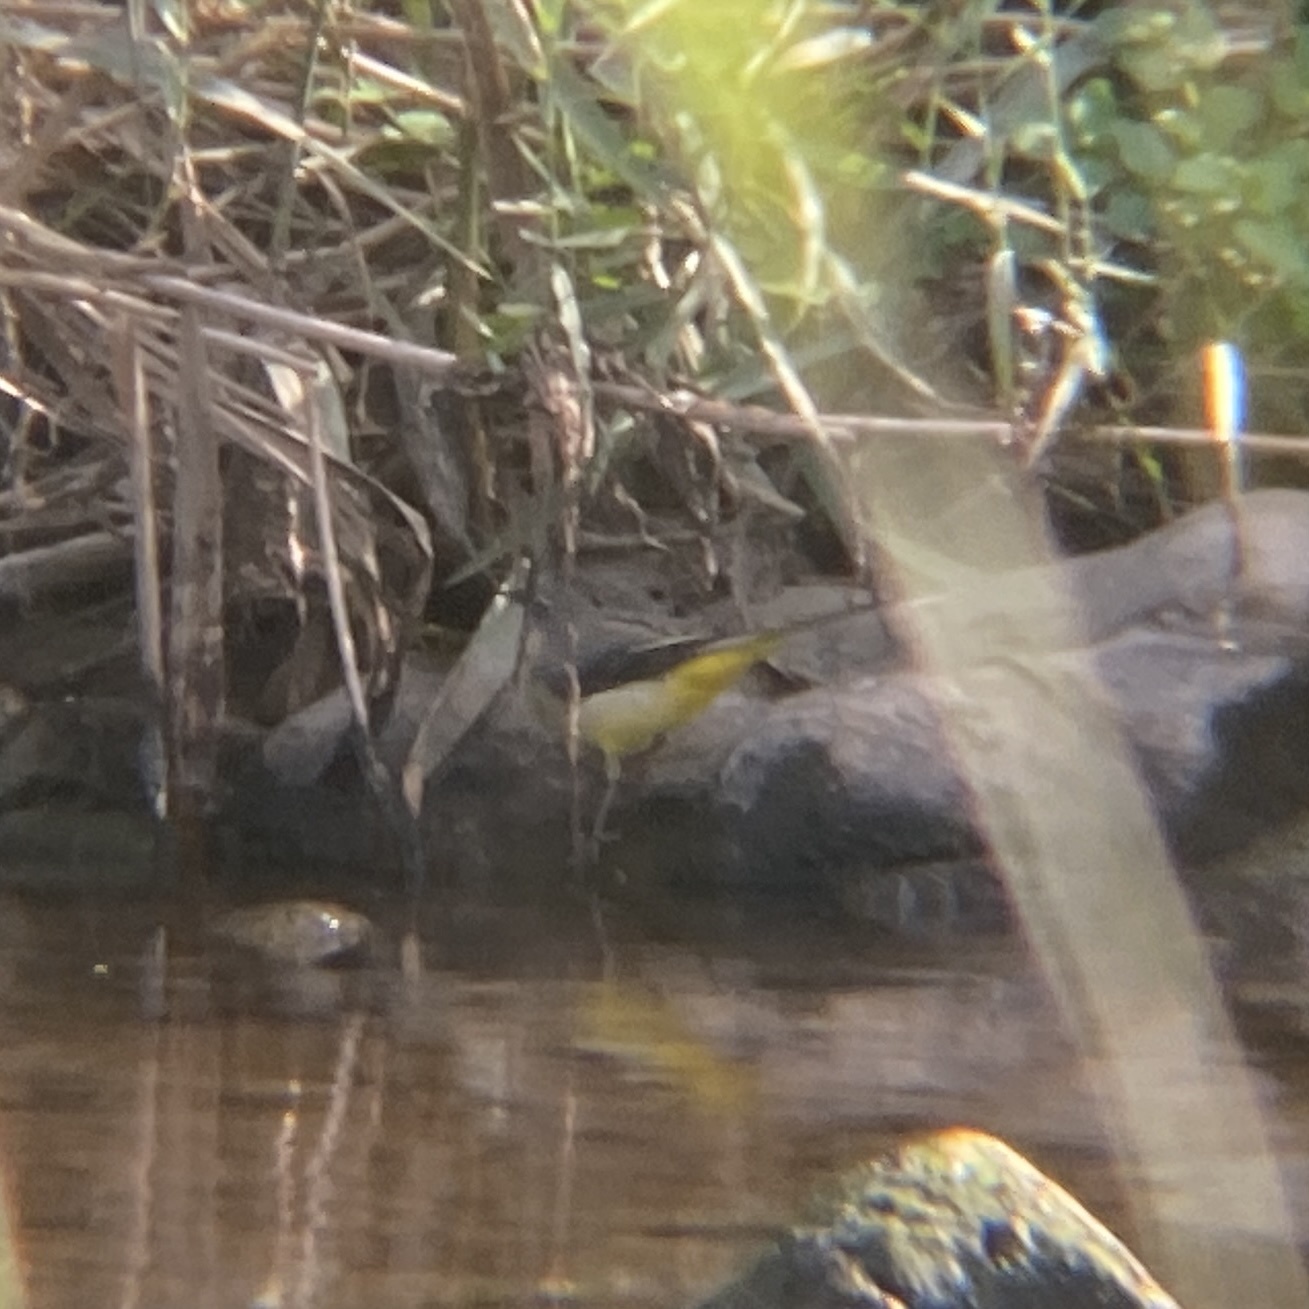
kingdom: Animalia
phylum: Chordata
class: Aves
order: Passeriformes
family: Motacillidae
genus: Motacilla
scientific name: Motacilla cinerea
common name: Grey wagtail
